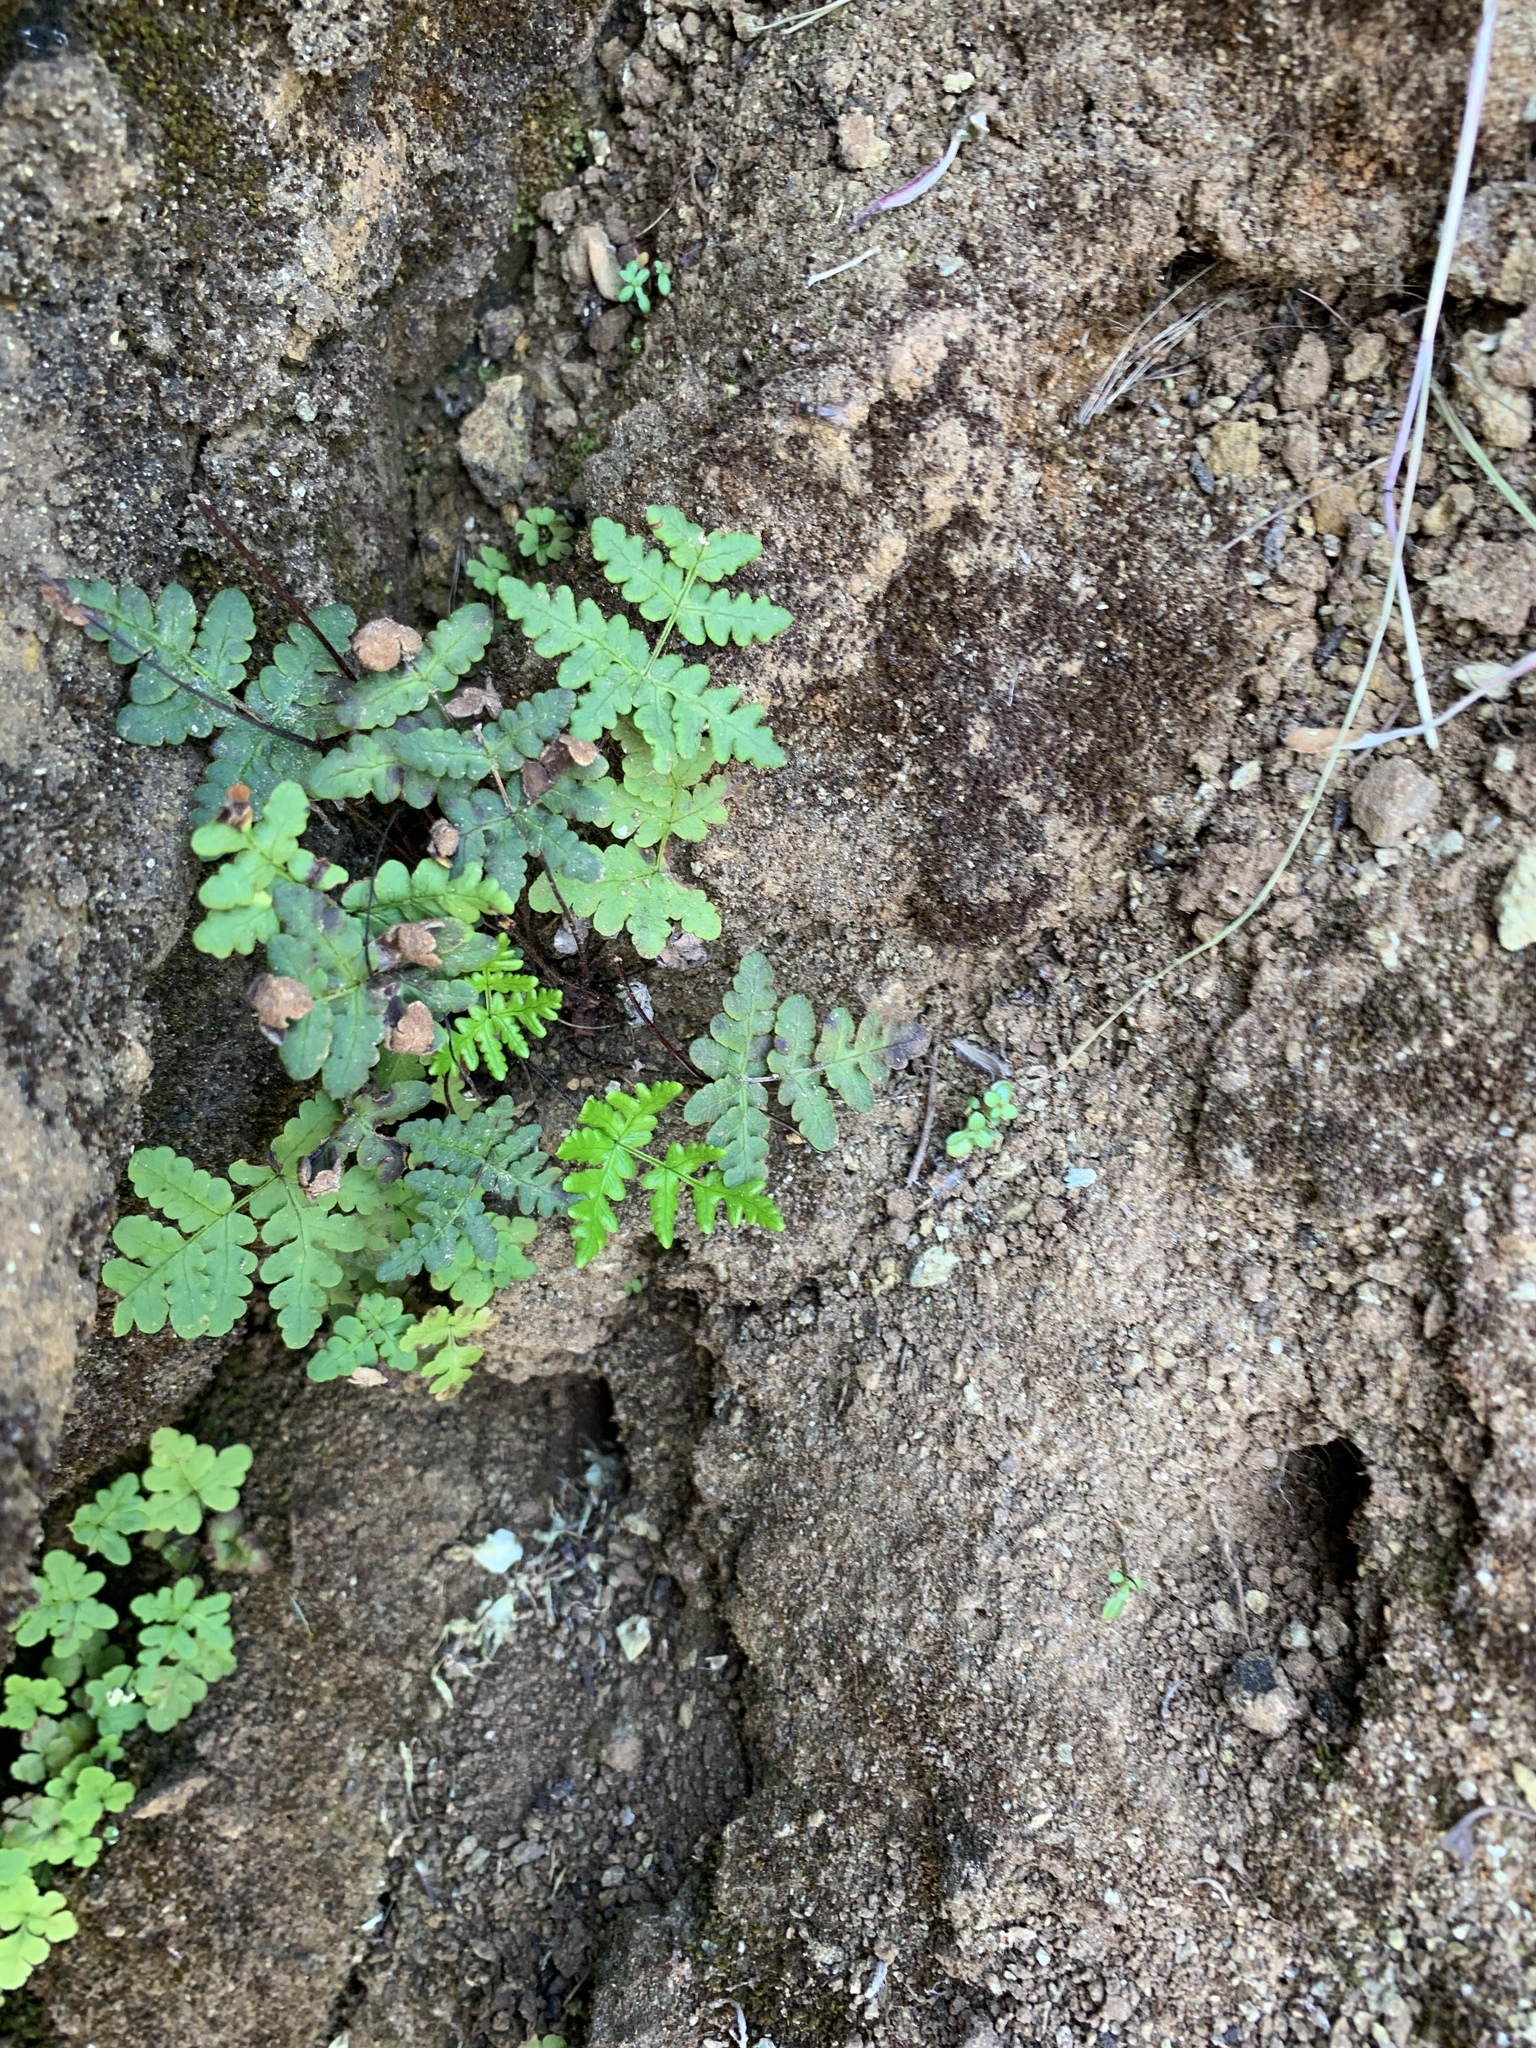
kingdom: Plantae
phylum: Tracheophyta
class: Polypodiopsida
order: Polypodiales
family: Pteridaceae
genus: Pentagramma
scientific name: Pentagramma triangularis
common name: Gold fern
